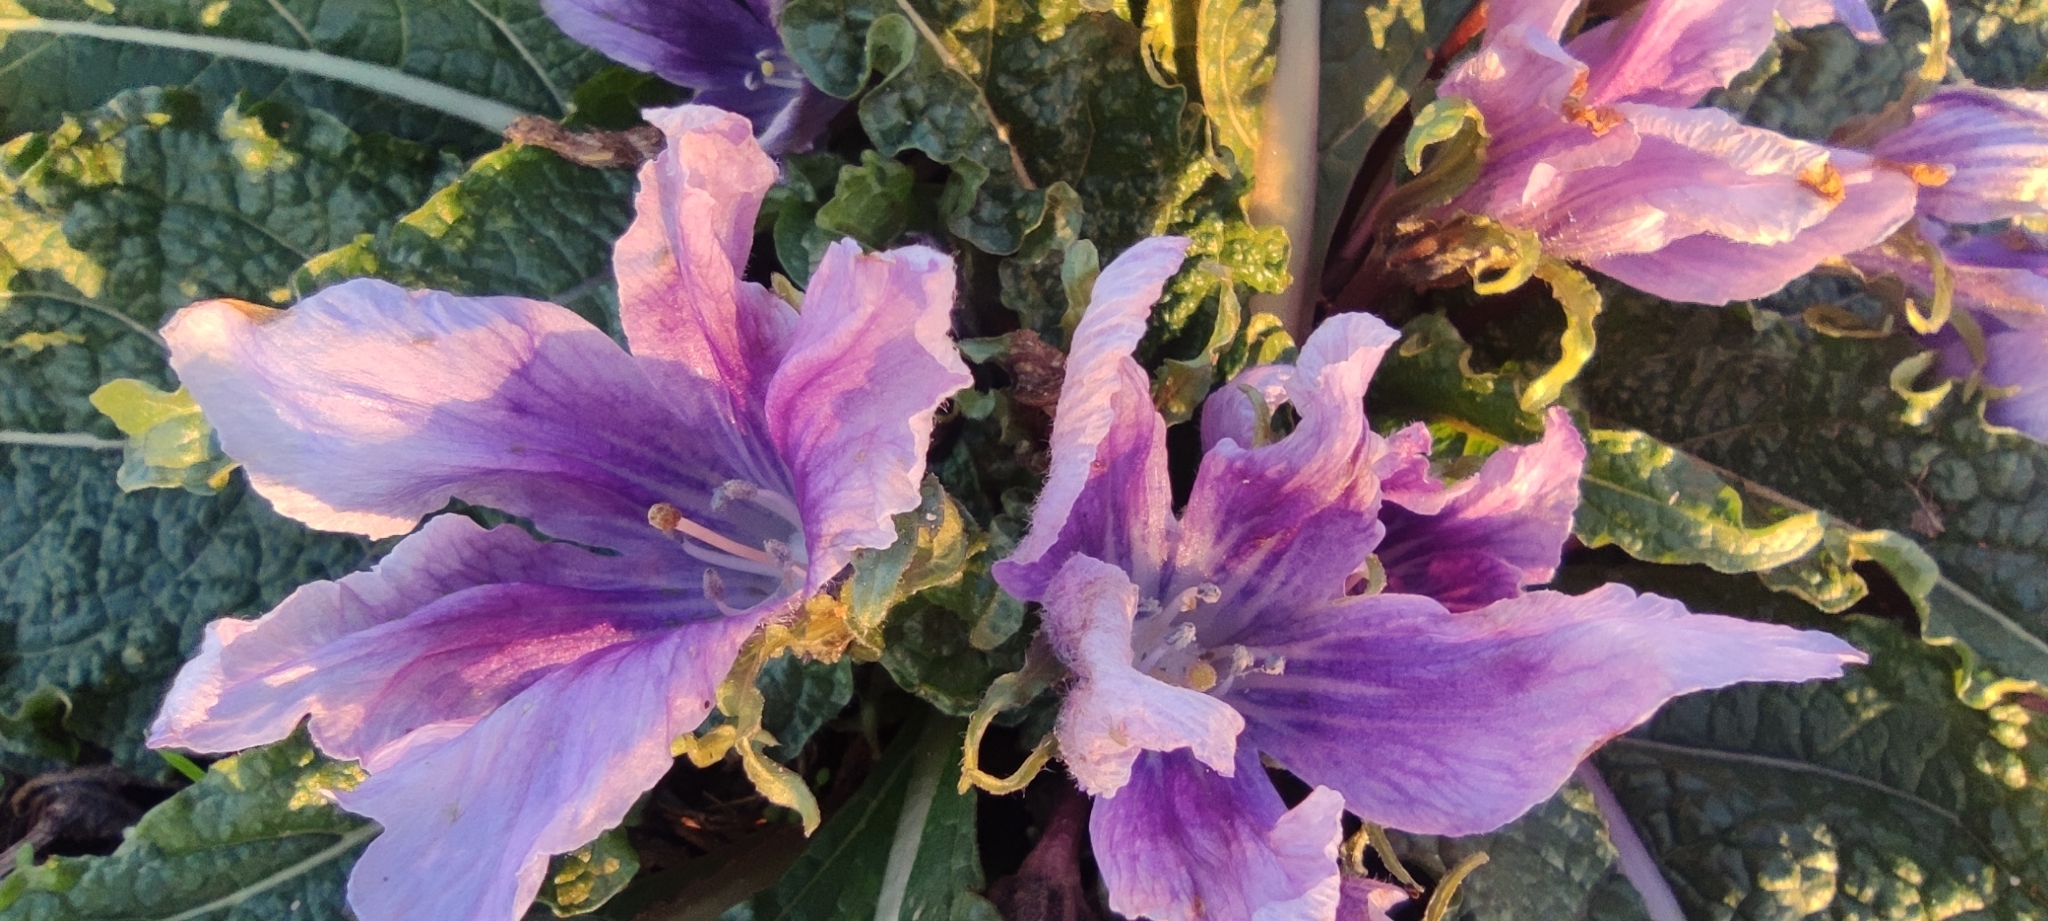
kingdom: Plantae
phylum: Tracheophyta
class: Magnoliopsida
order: Solanales
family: Solanaceae
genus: Mandragora
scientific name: Mandragora officinarum
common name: Mandrake
